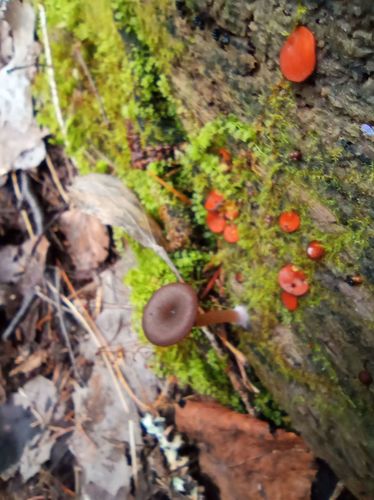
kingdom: Fungi
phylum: Basidiomycota
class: Agaricomycetes
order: Agaricales
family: Hygrophoraceae
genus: Arrhenia
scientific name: Arrhenia discorosea
